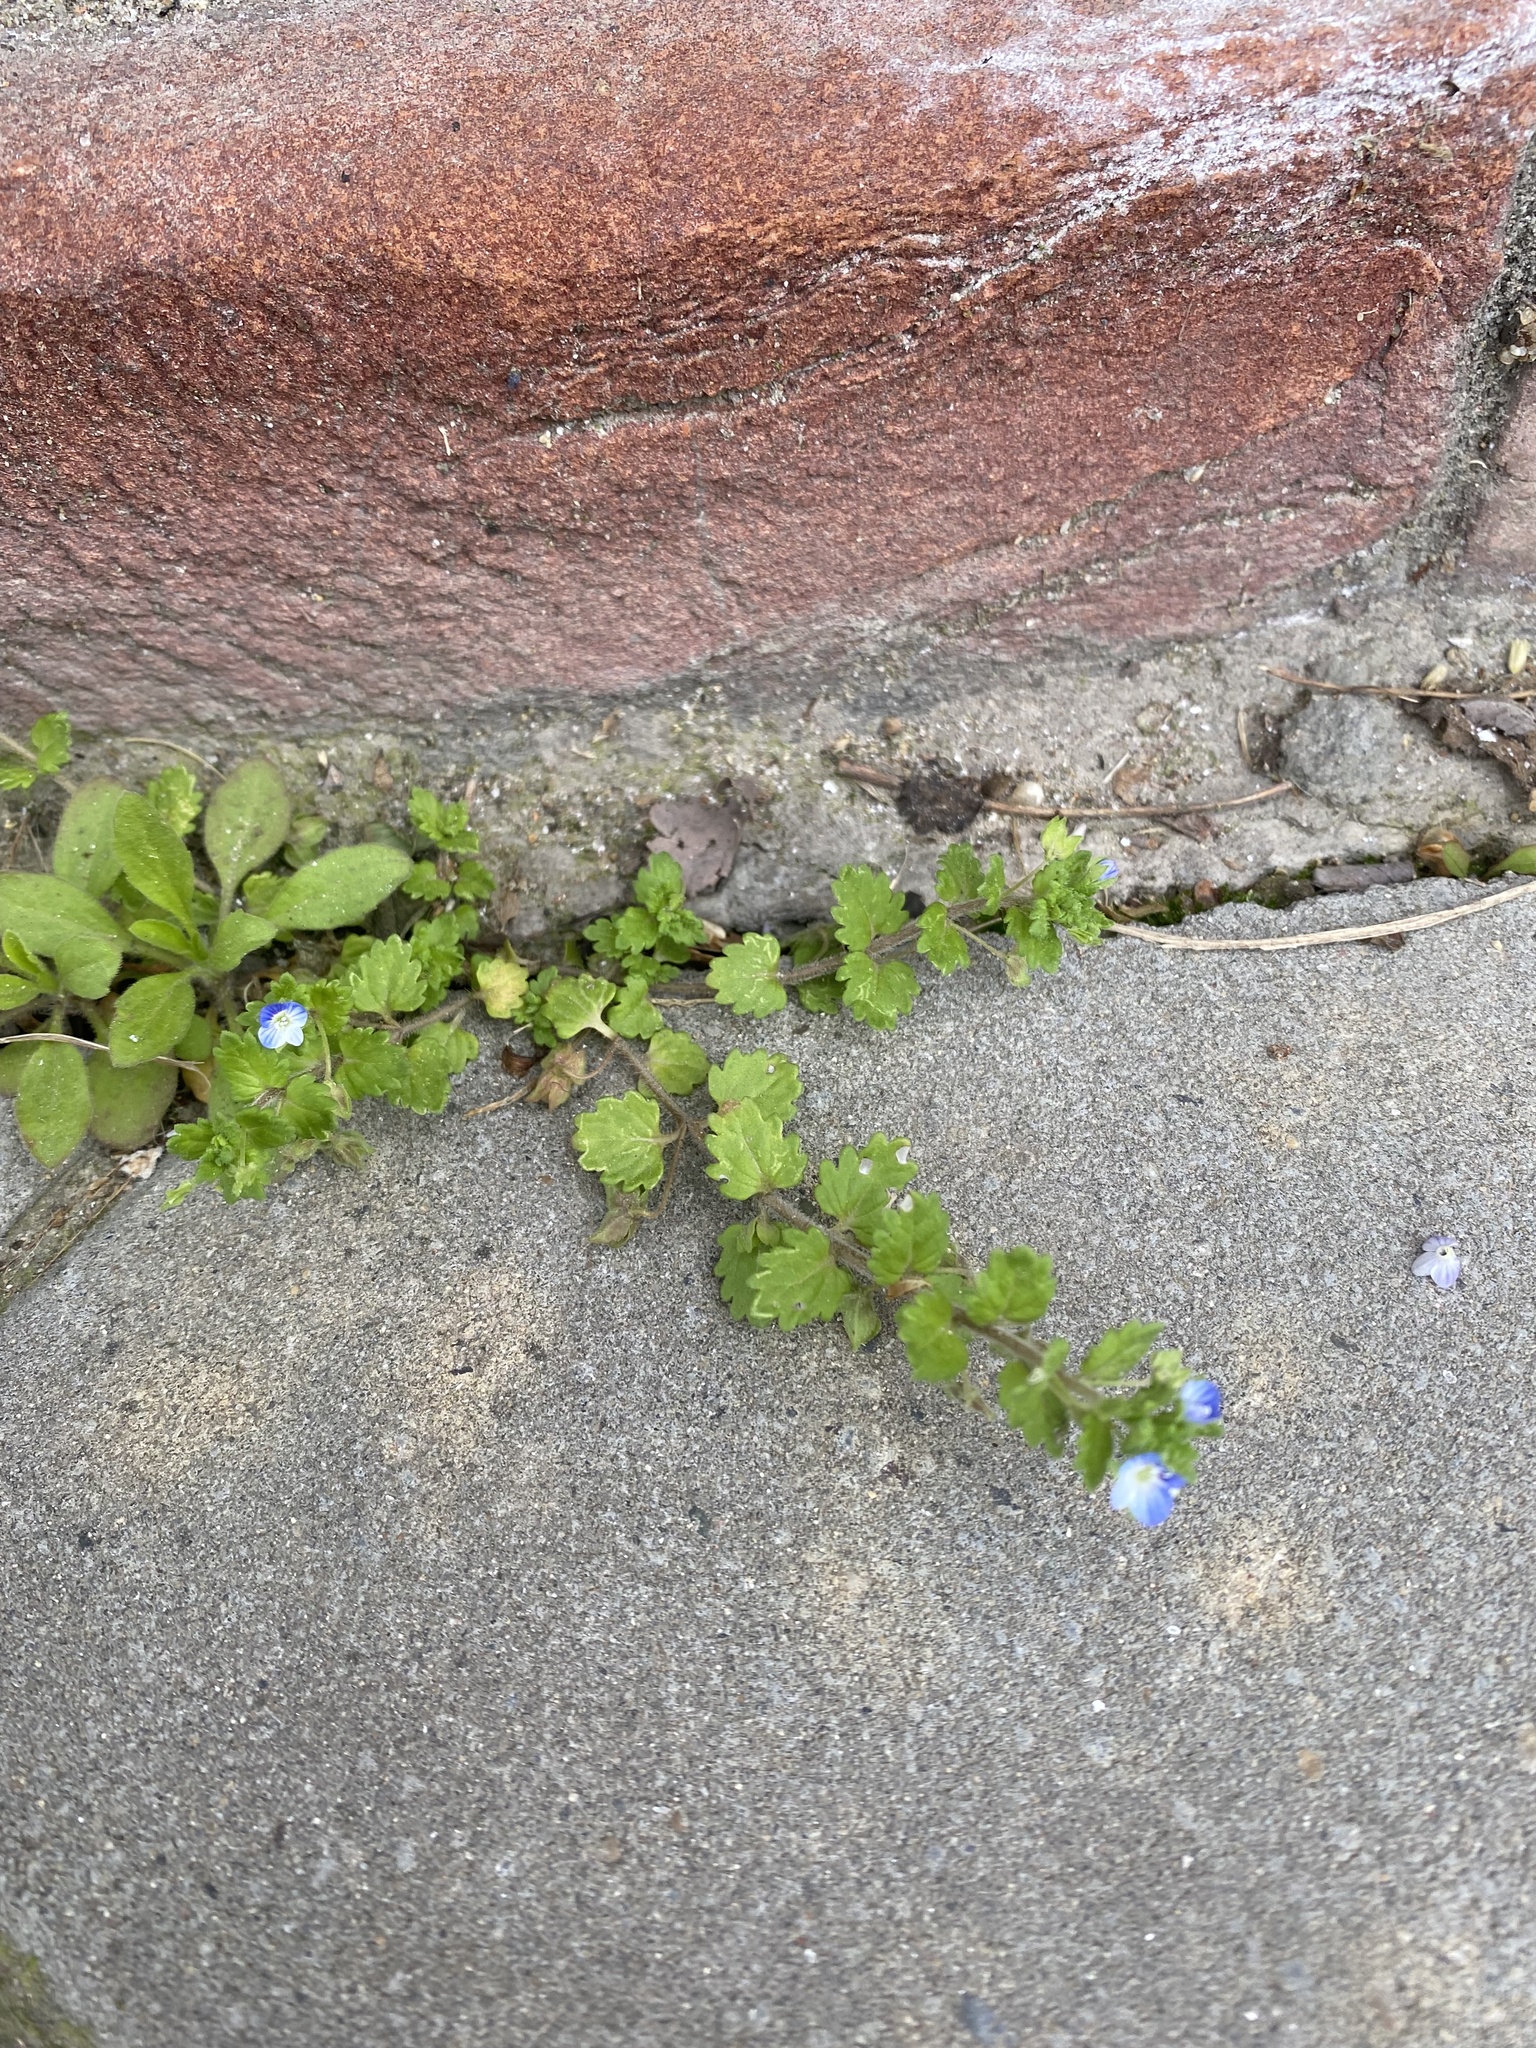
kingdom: Plantae
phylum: Tracheophyta
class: Magnoliopsida
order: Lamiales
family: Plantaginaceae
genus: Veronica
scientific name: Veronica polita
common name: Grey field-speedwell
